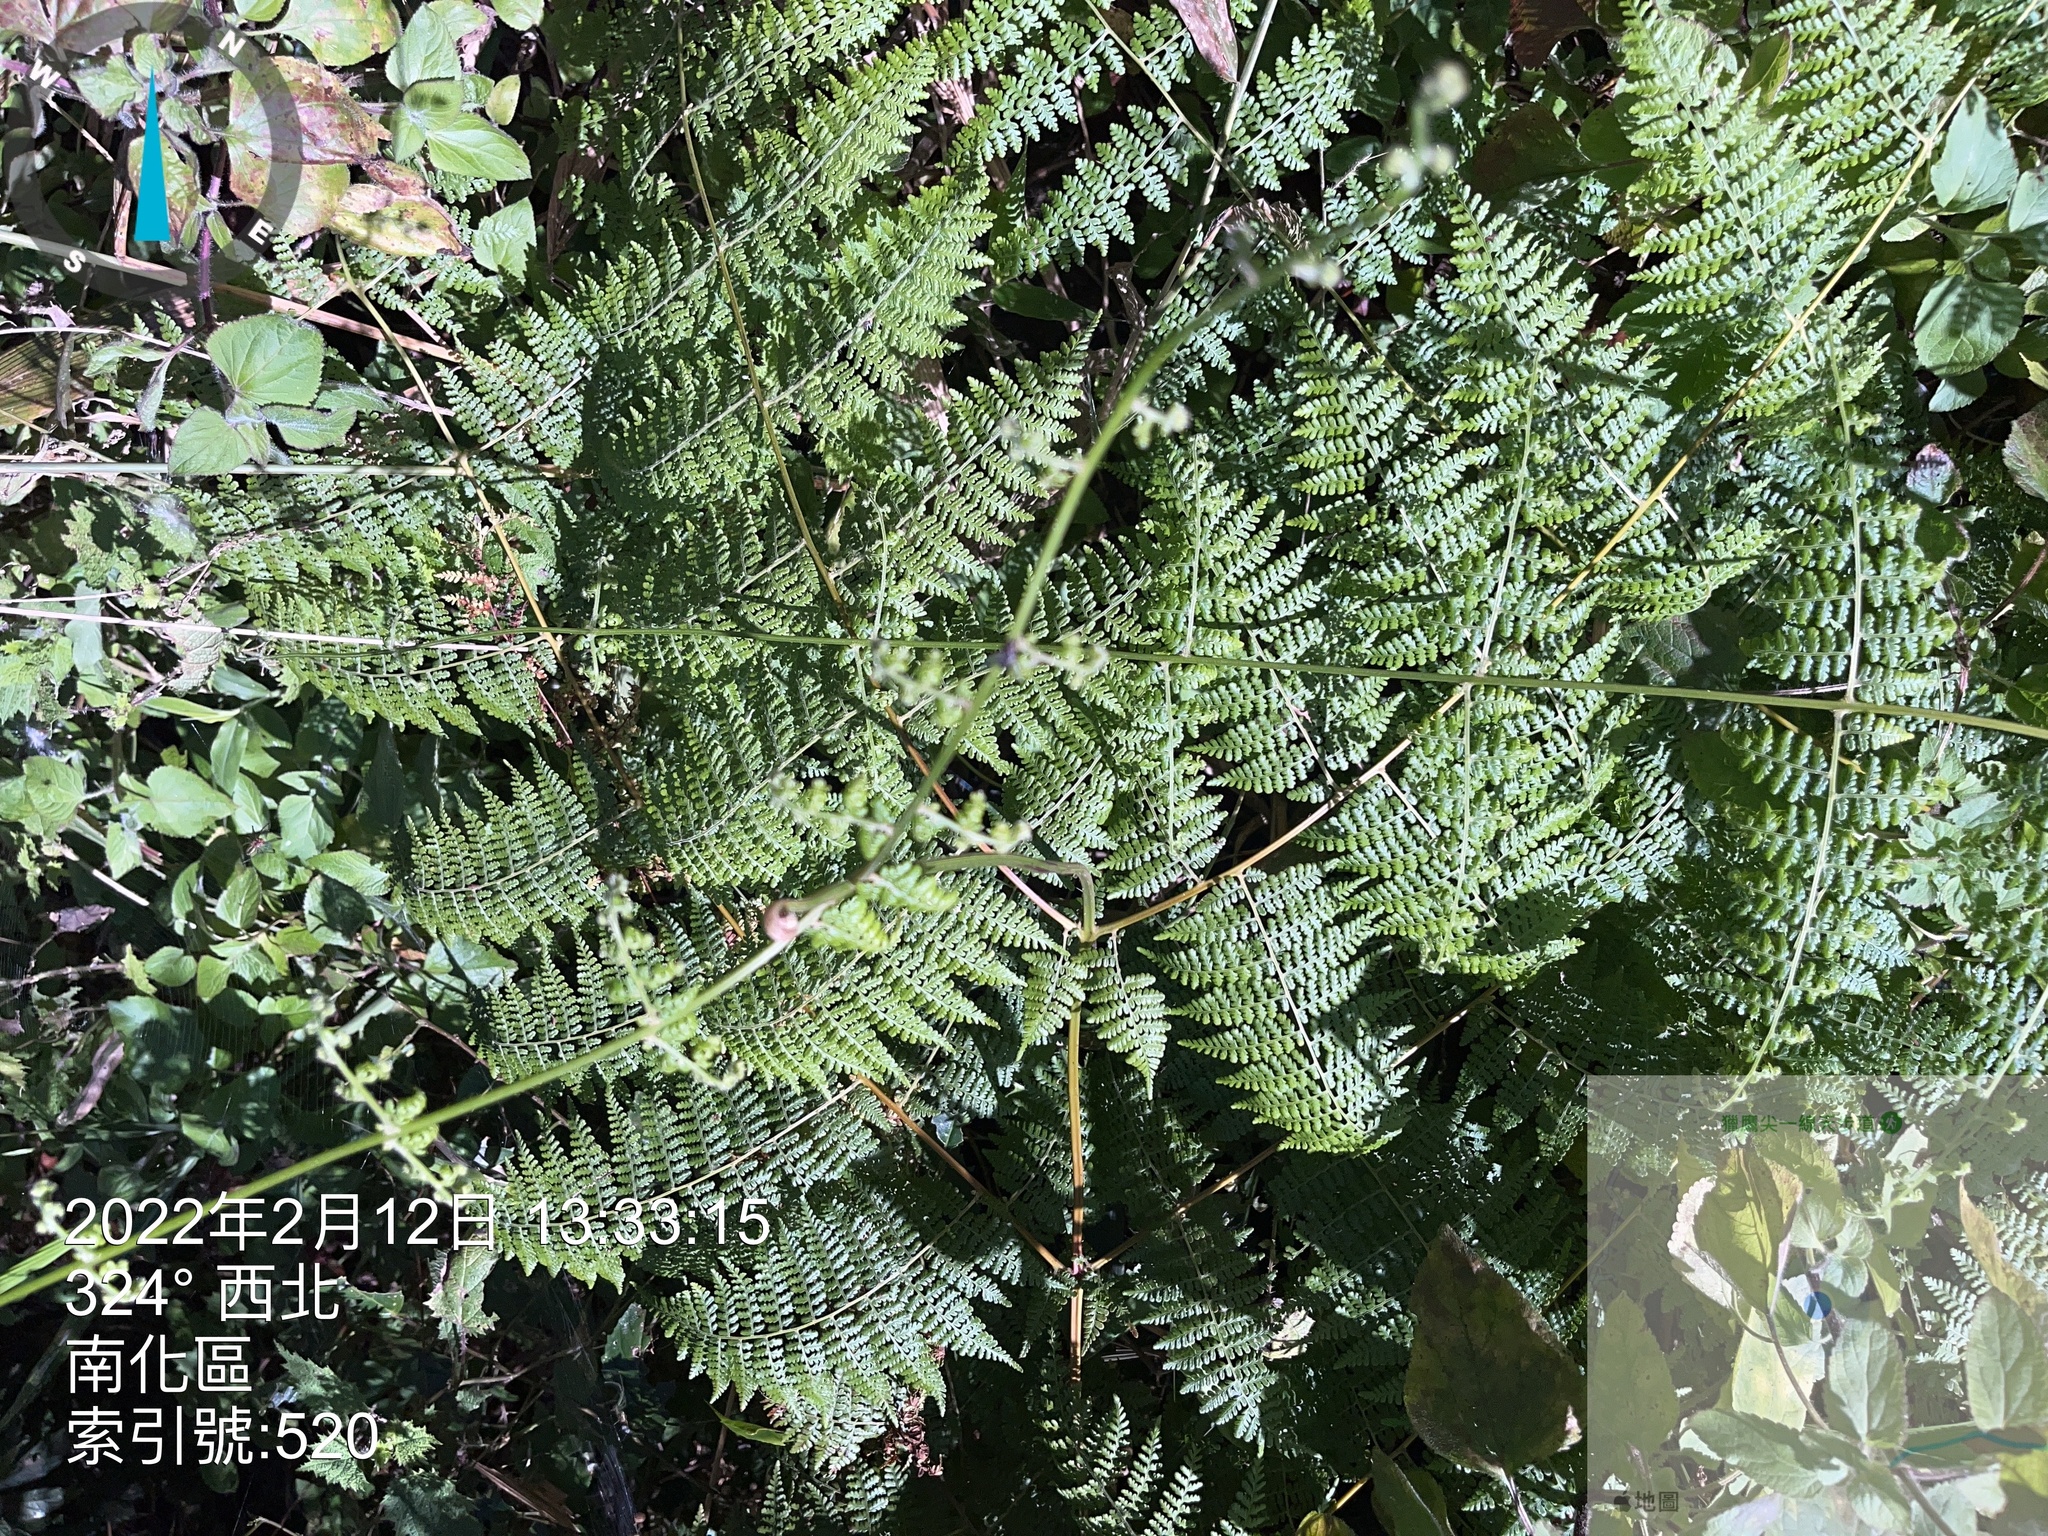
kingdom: Plantae
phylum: Tracheophyta
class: Polypodiopsida
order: Polypodiales
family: Dennstaedtiaceae
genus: Monachosorum
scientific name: Monachosorum henryi
